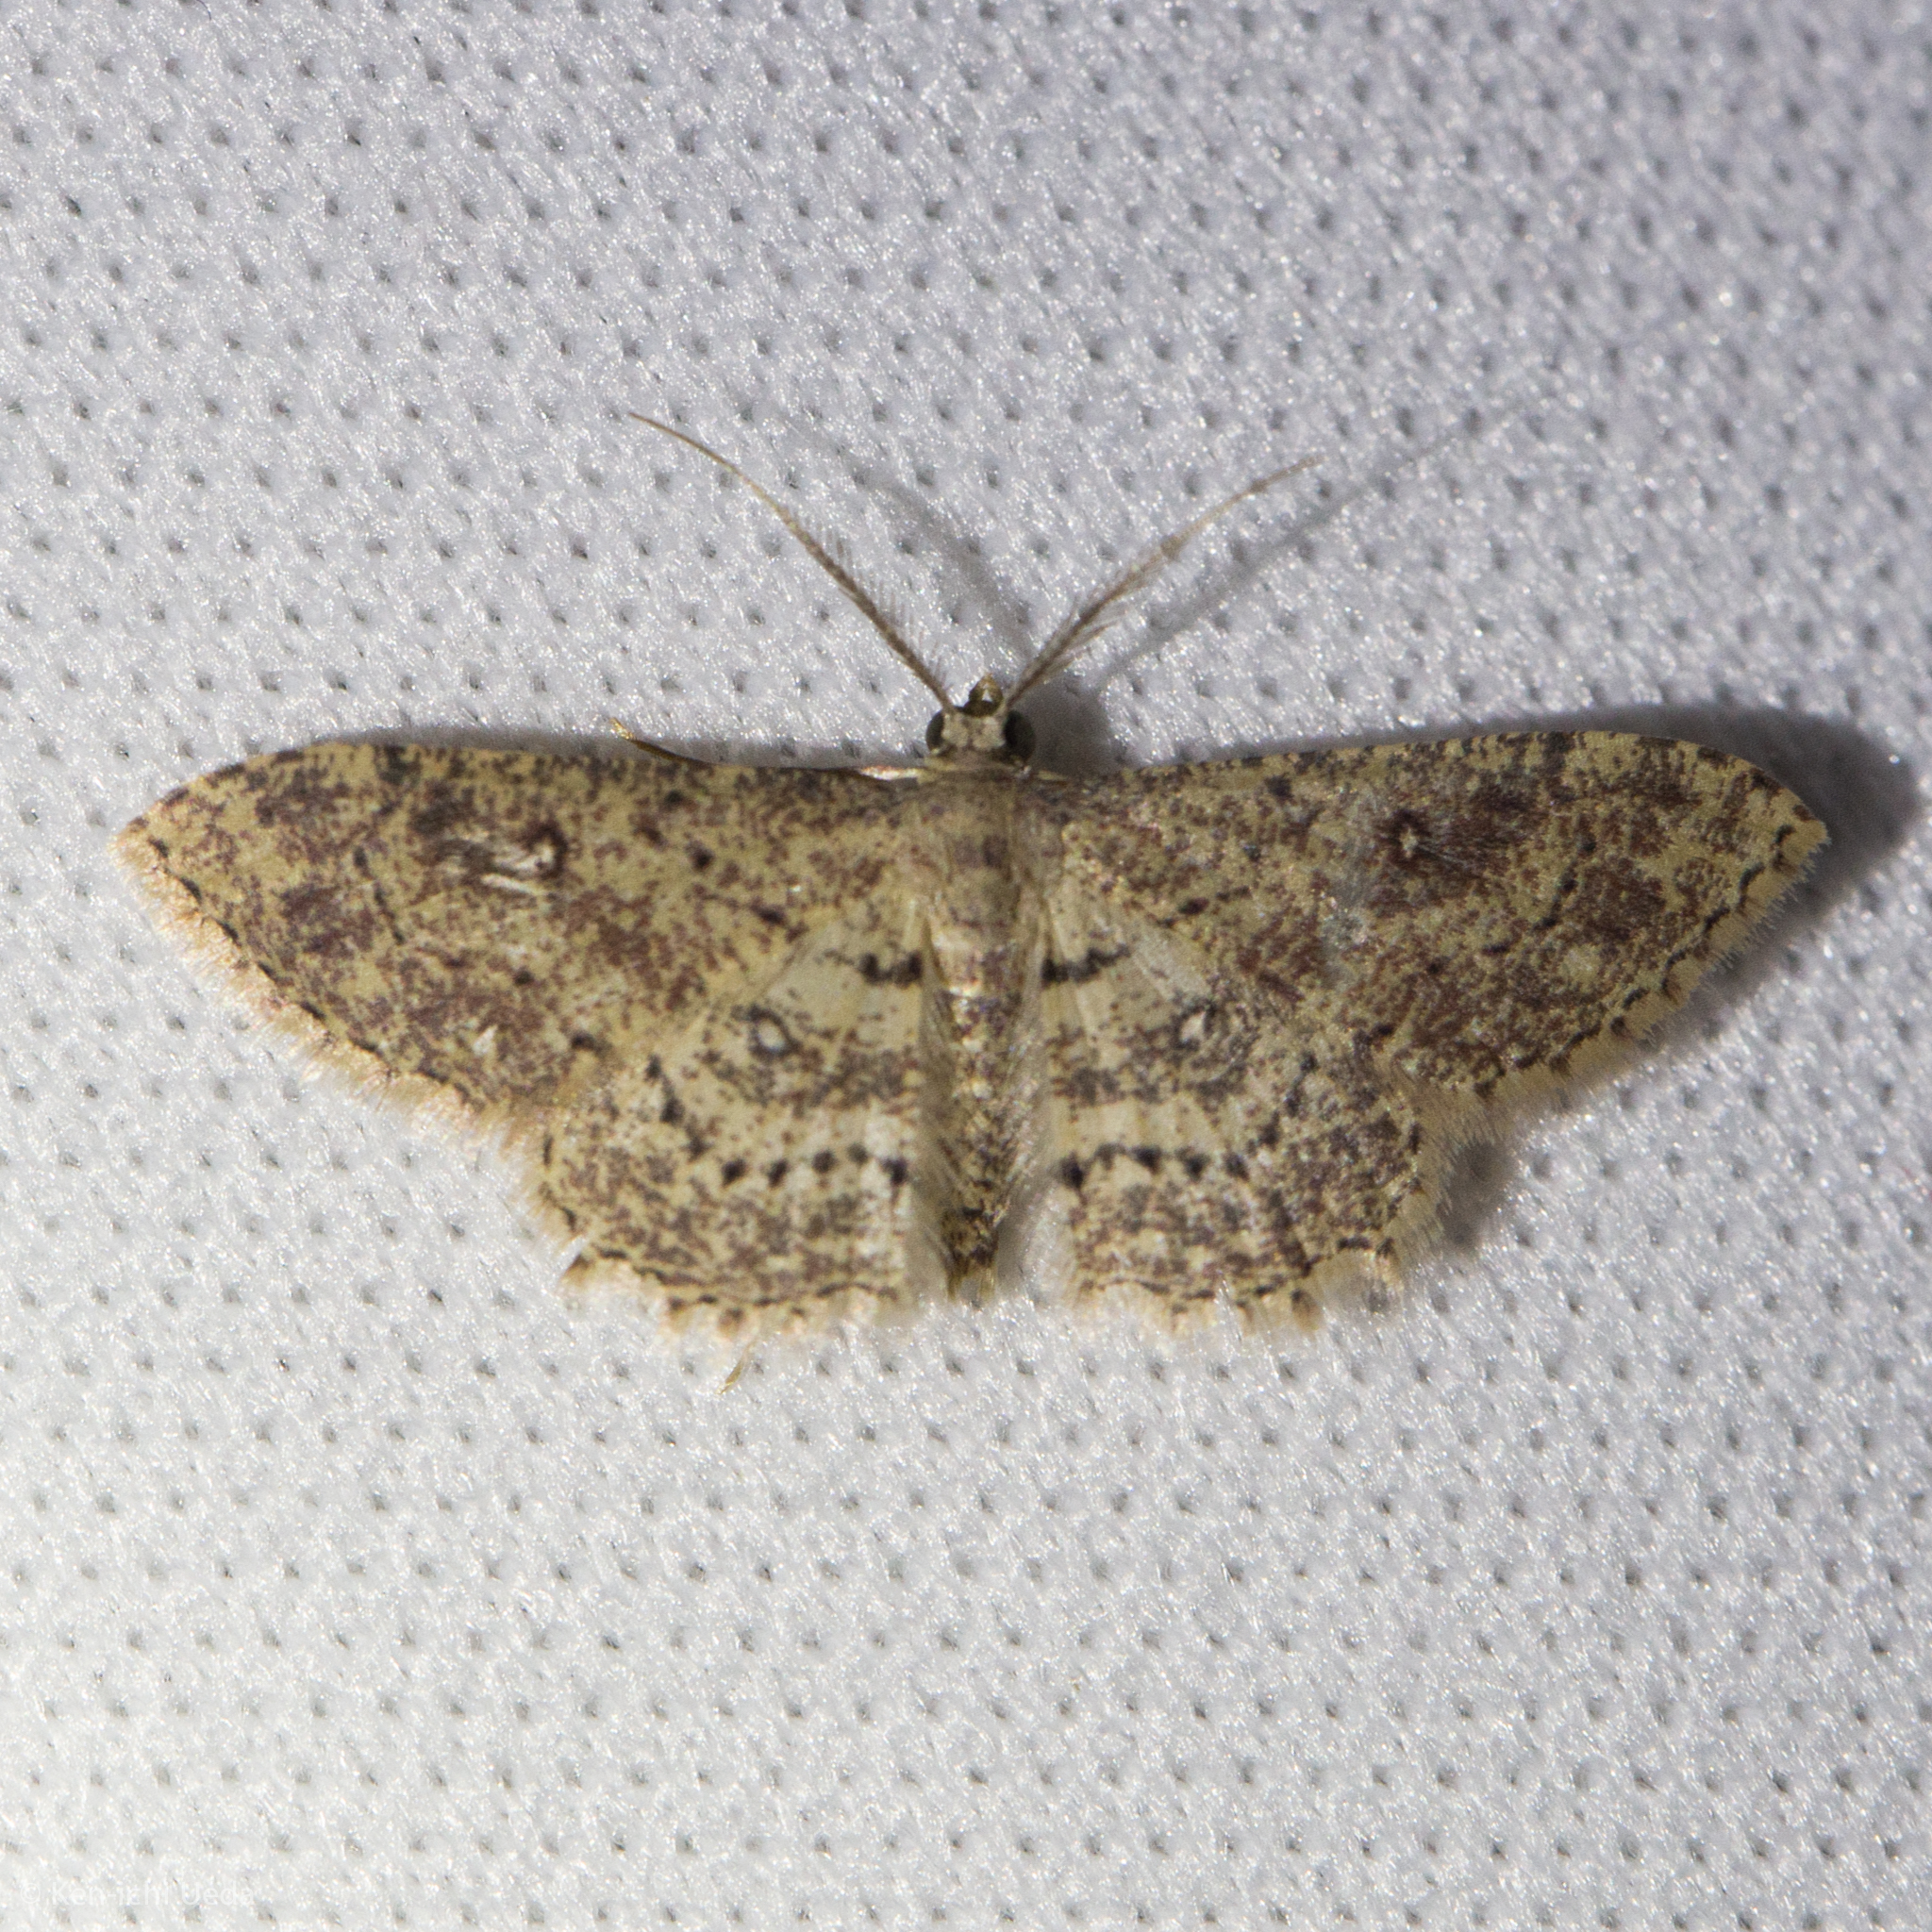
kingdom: Animalia
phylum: Arthropoda
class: Insecta
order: Lepidoptera
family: Geometridae
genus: Cyclophora
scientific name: Cyclophora nanaria
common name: Cankerworm
